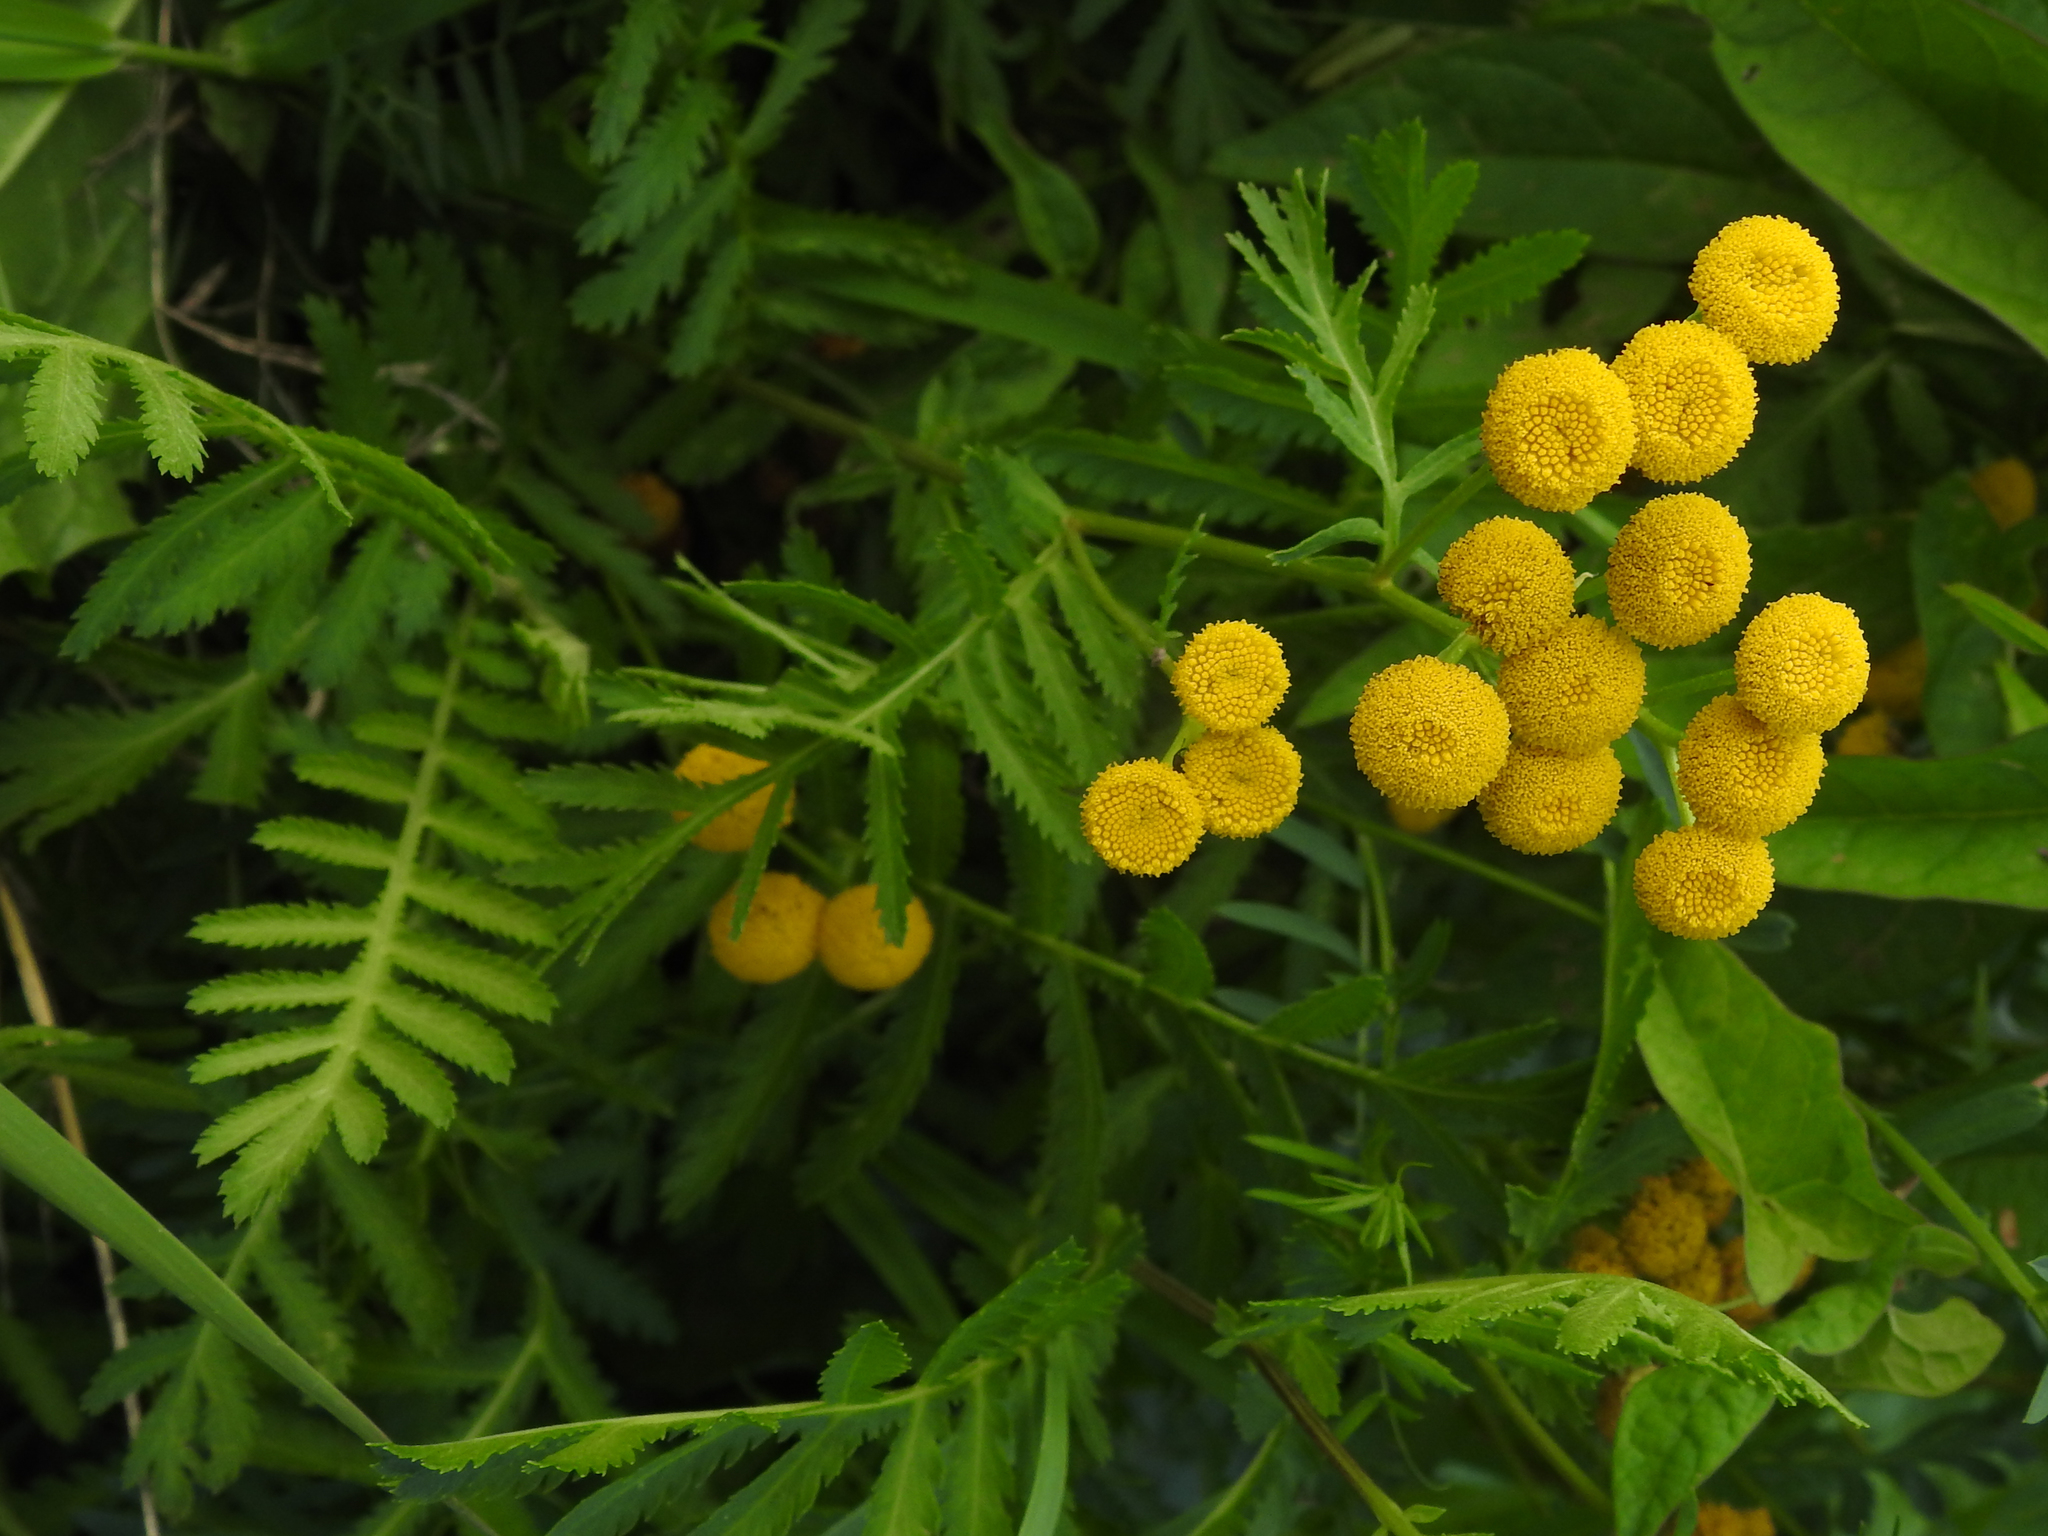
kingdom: Plantae
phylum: Tracheophyta
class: Magnoliopsida
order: Asterales
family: Asteraceae
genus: Tanacetum
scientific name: Tanacetum vulgare
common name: Common tansy
